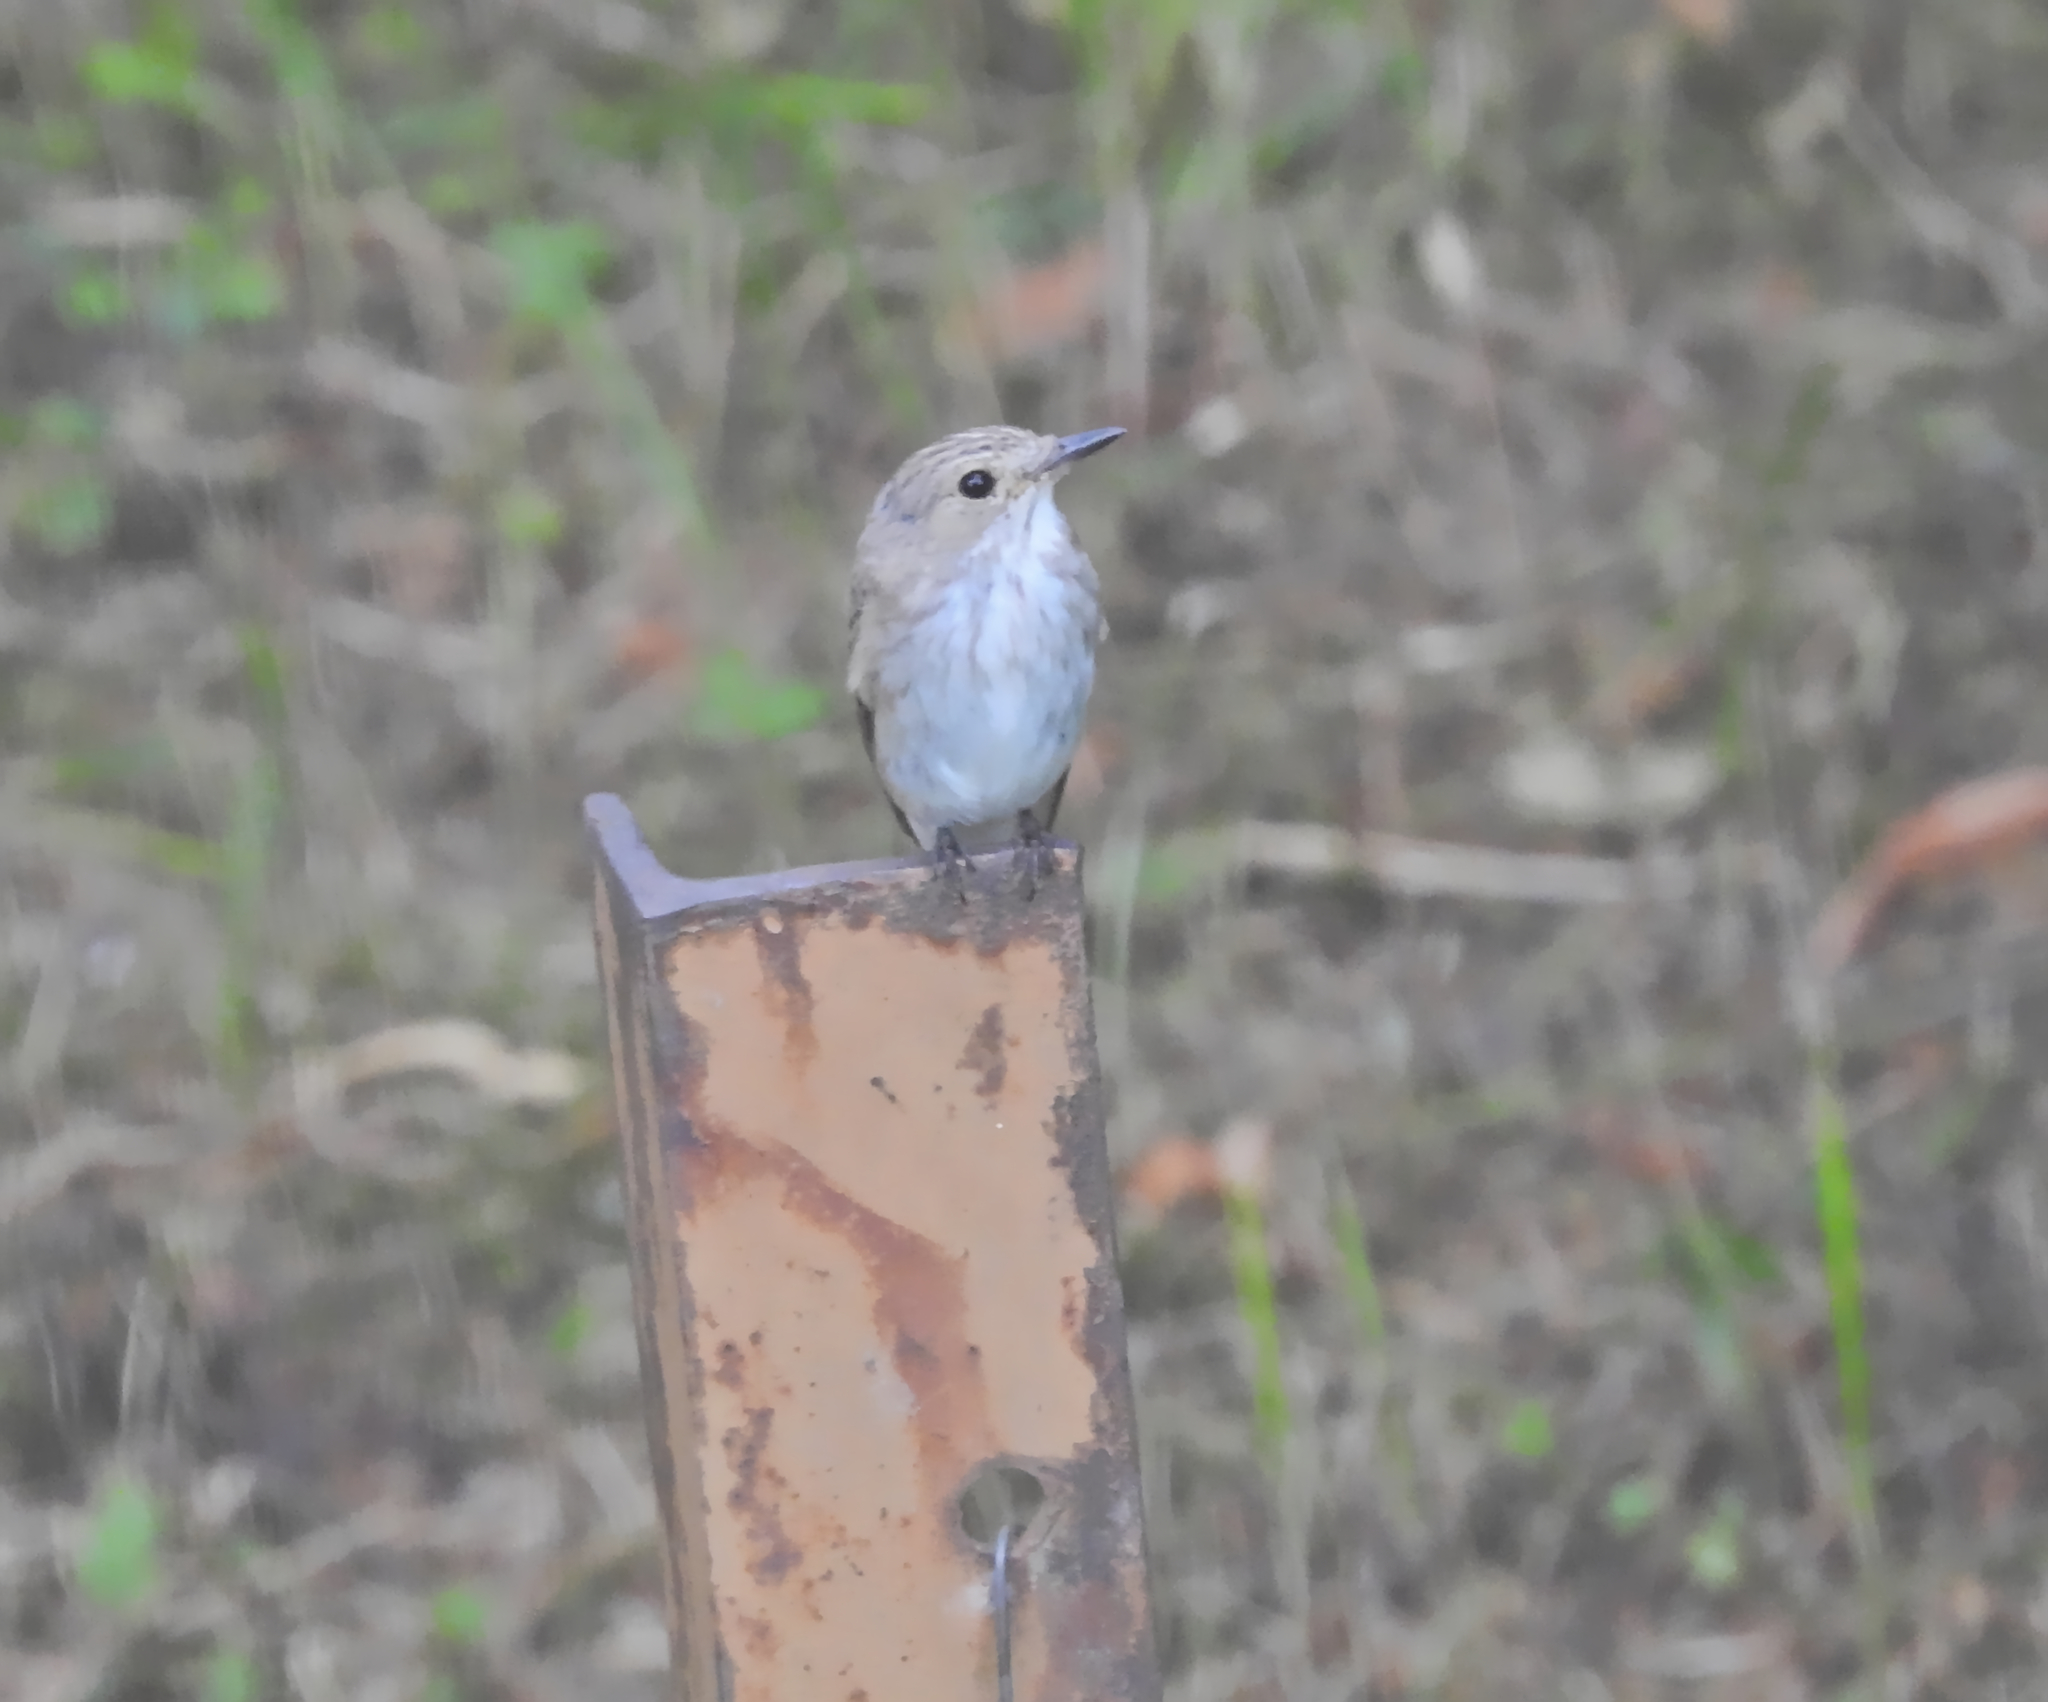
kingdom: Animalia
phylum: Chordata
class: Aves
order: Passeriformes
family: Muscicapidae
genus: Muscicapa
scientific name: Muscicapa striata
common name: Spotted flycatcher
